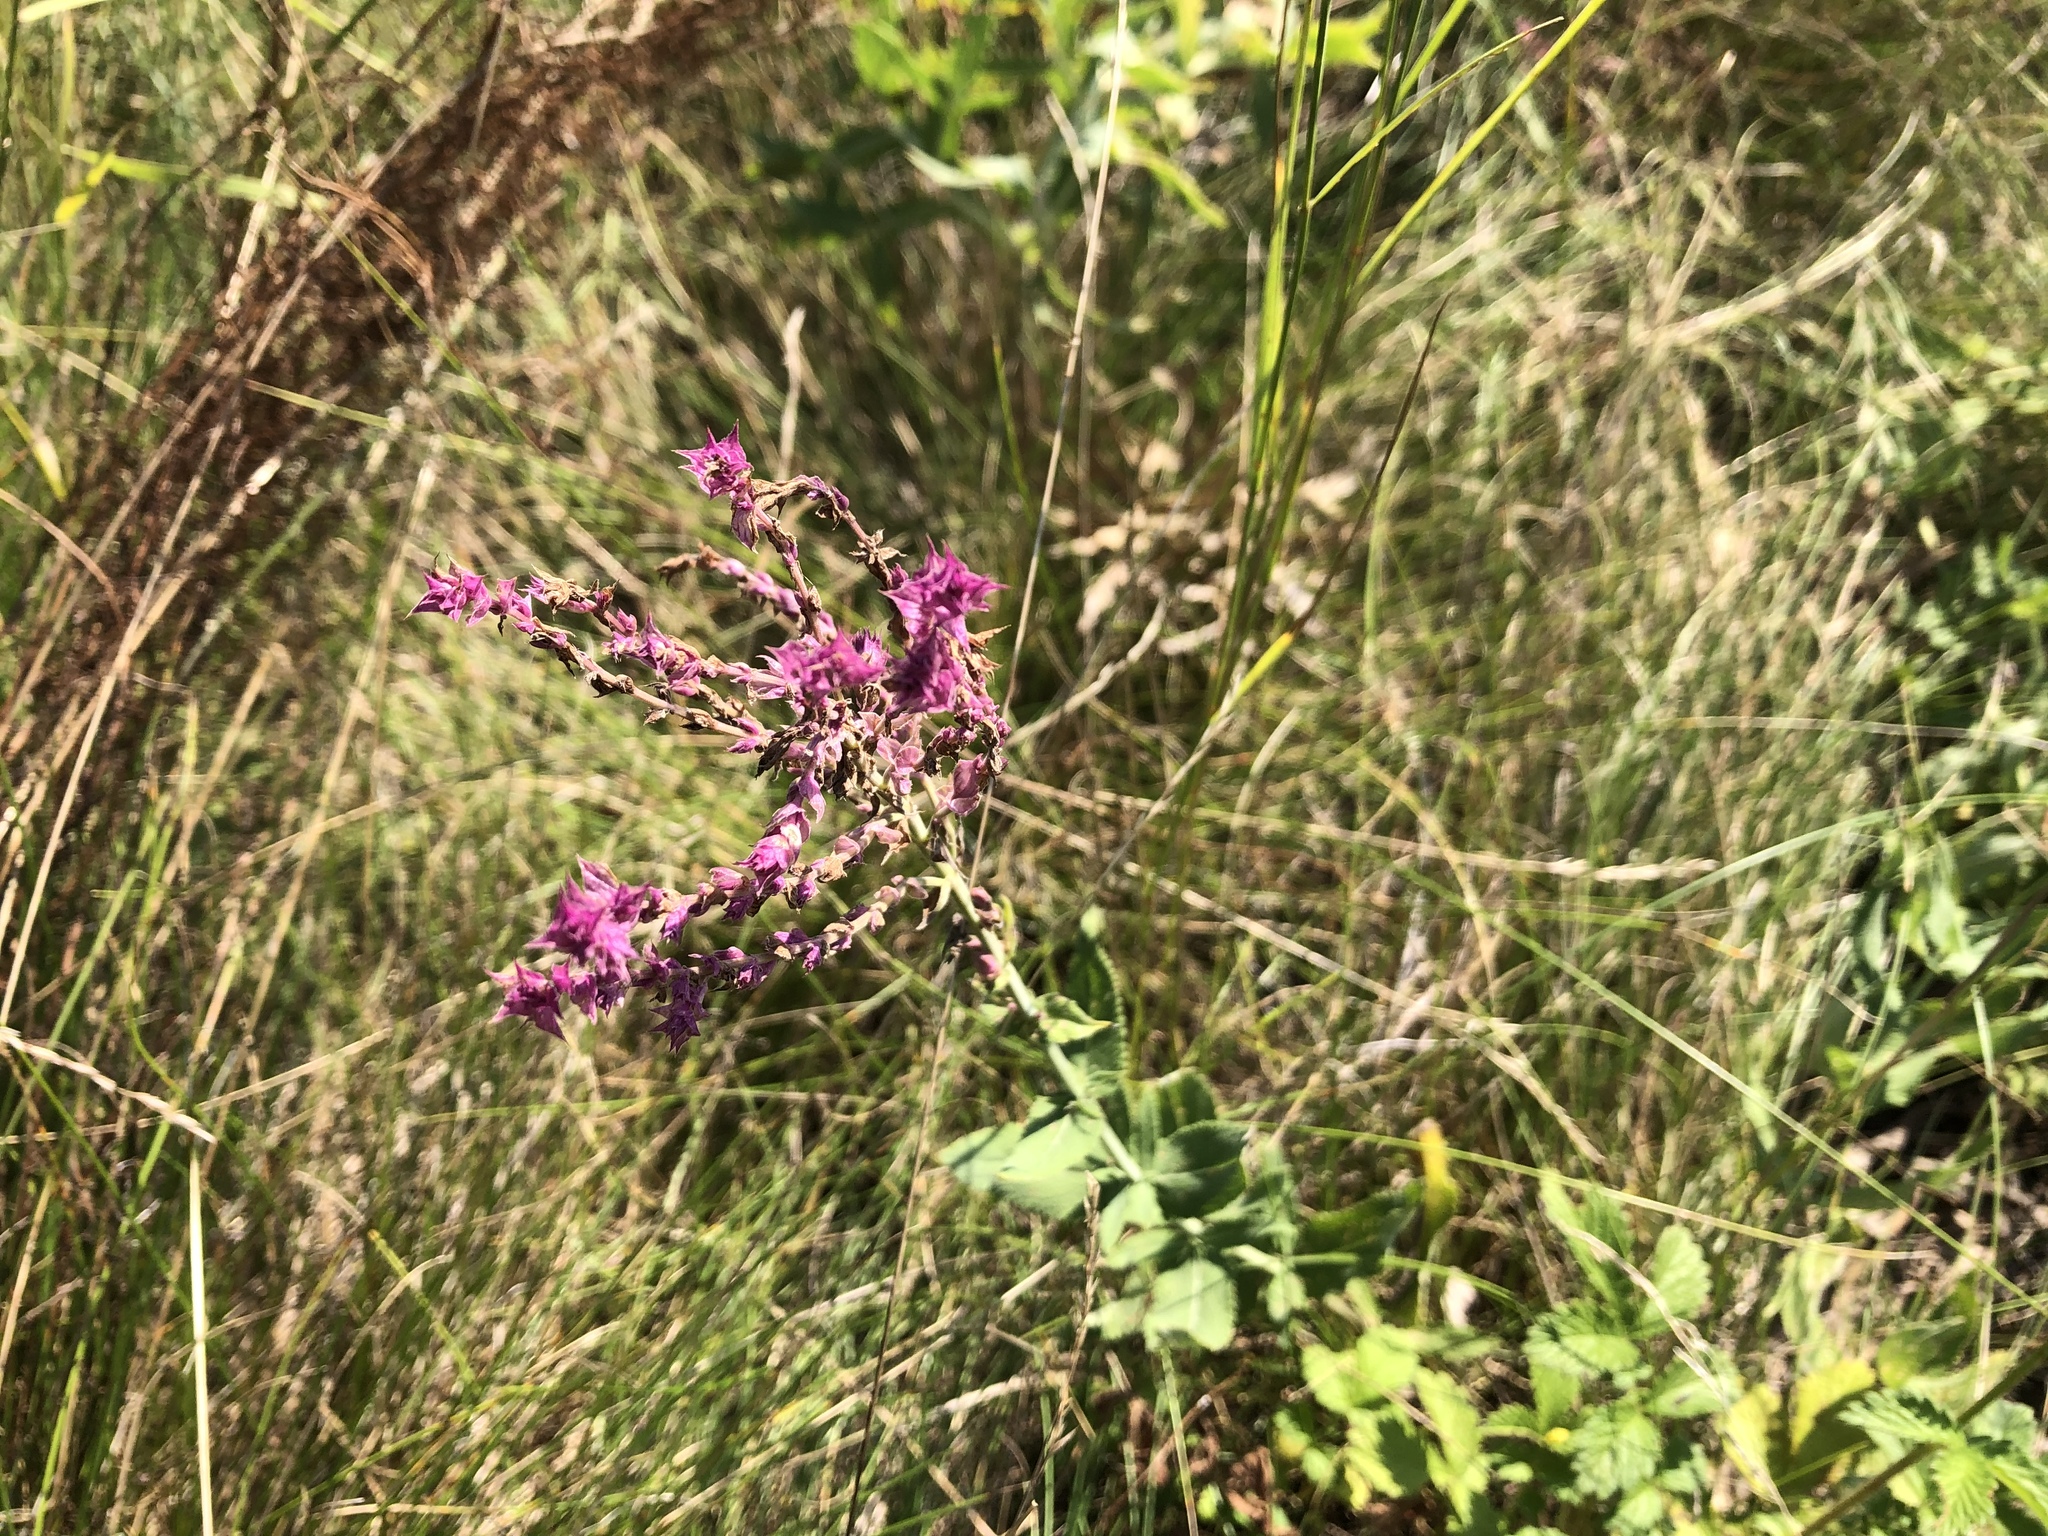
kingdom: Plantae
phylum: Tracheophyta
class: Magnoliopsida
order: Lamiales
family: Lamiaceae
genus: Salvia
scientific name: Salvia nemorosa
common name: Balkan clary
